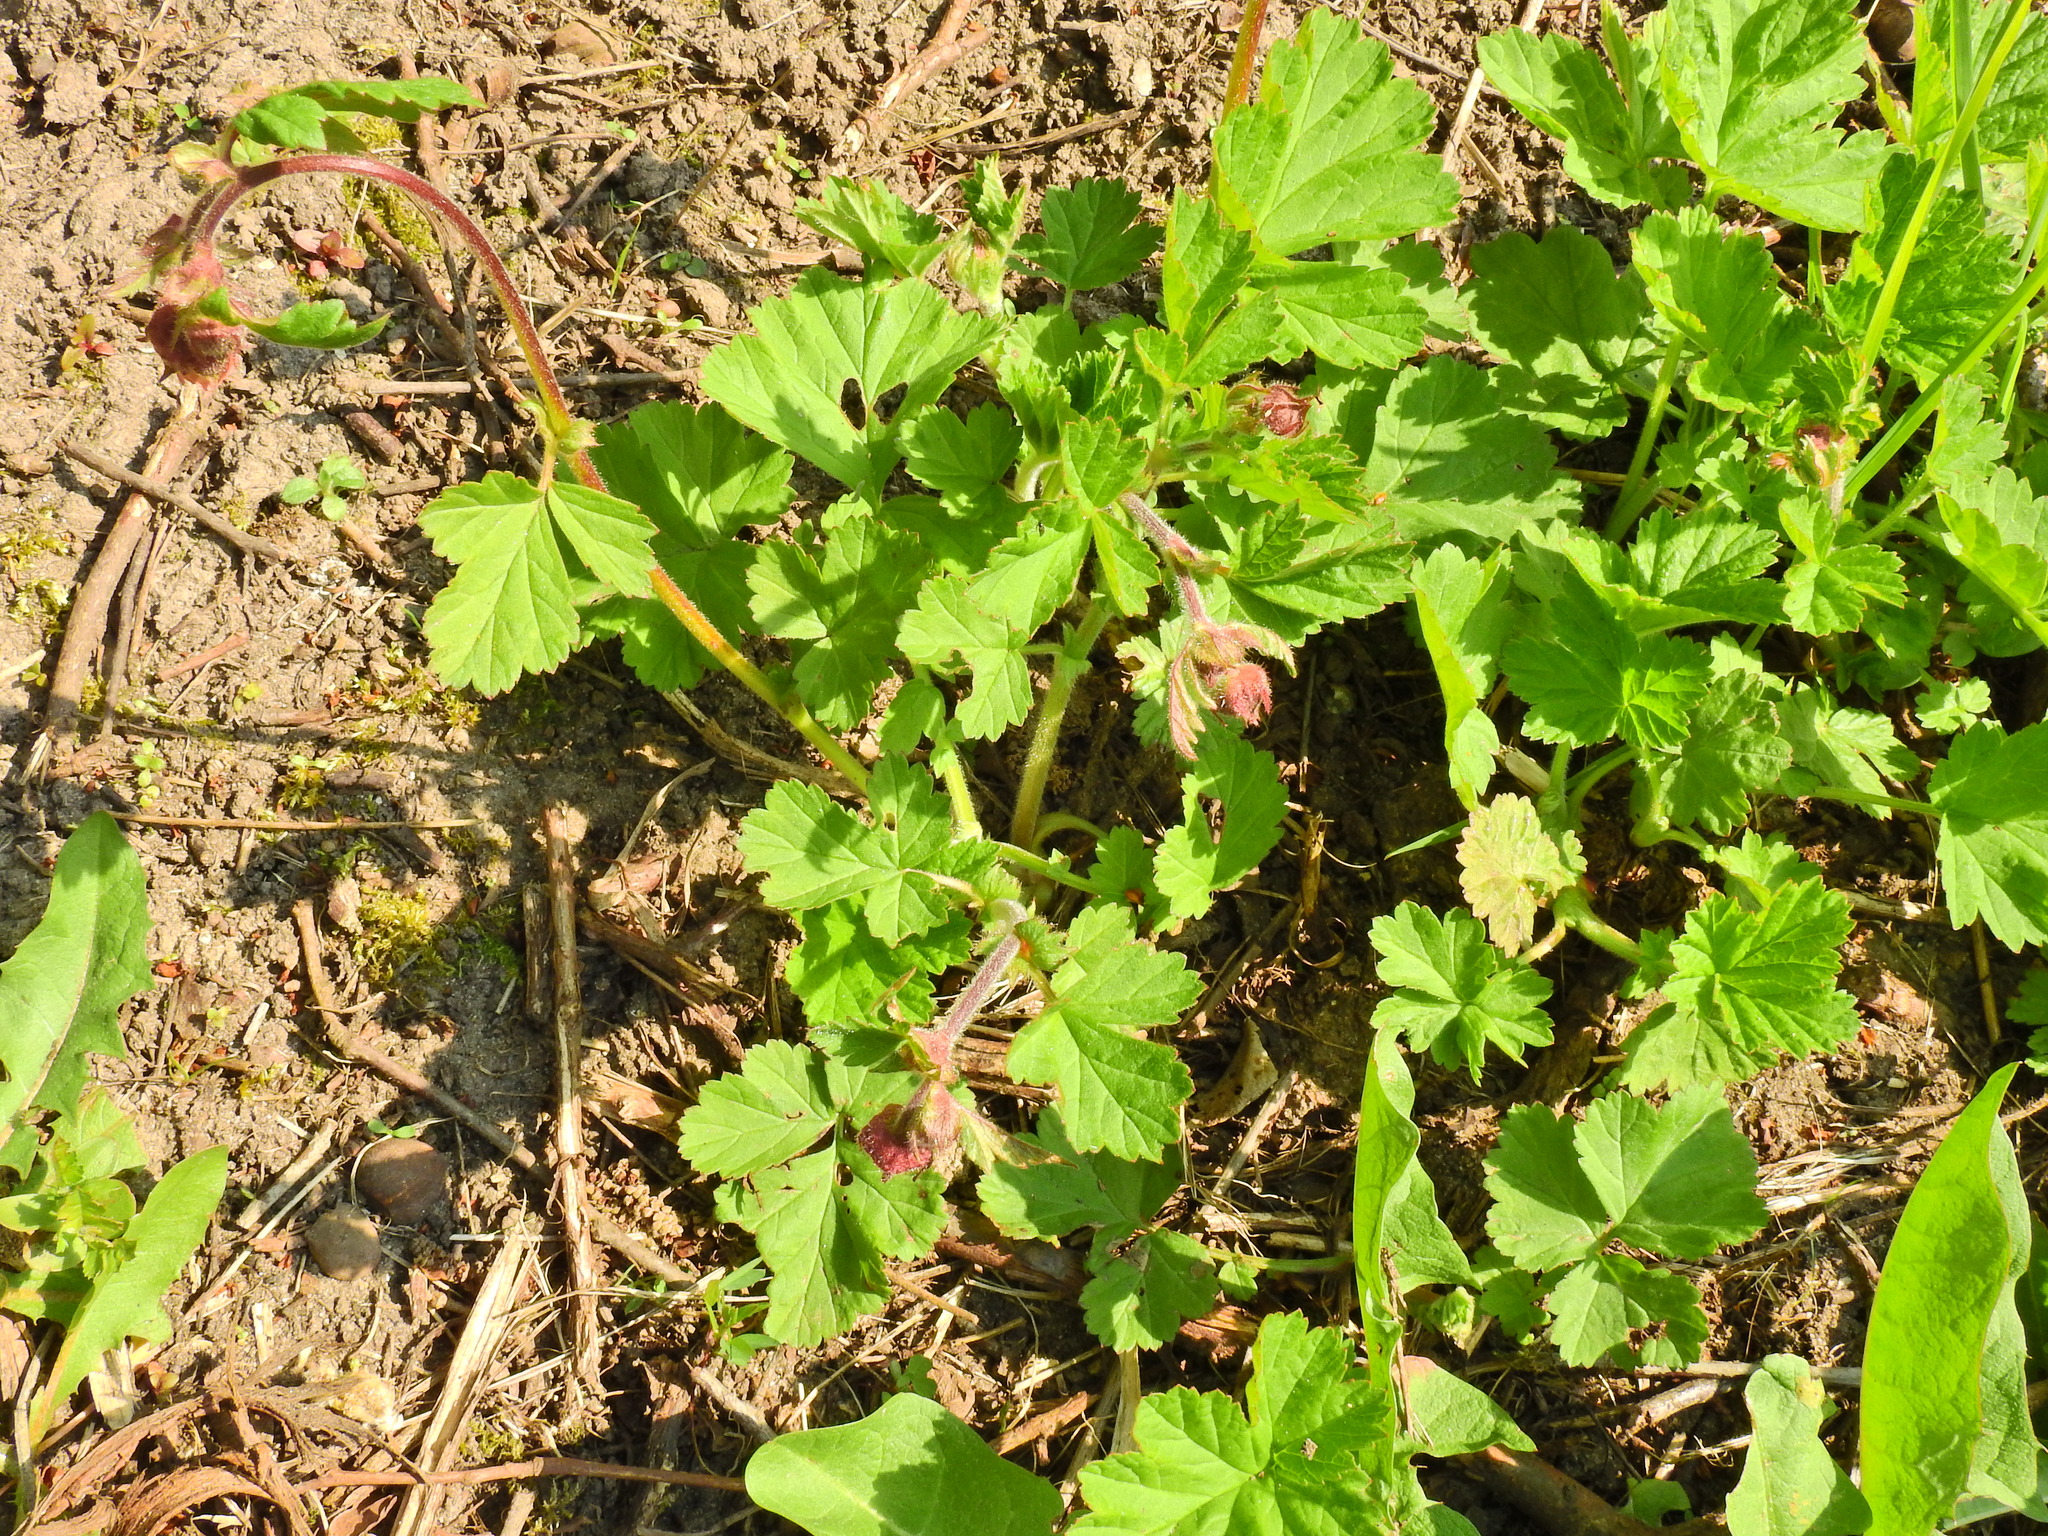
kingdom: Plantae
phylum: Tracheophyta
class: Magnoliopsida
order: Rosales
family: Rosaceae
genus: Geum
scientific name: Geum rivale
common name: Water avens
